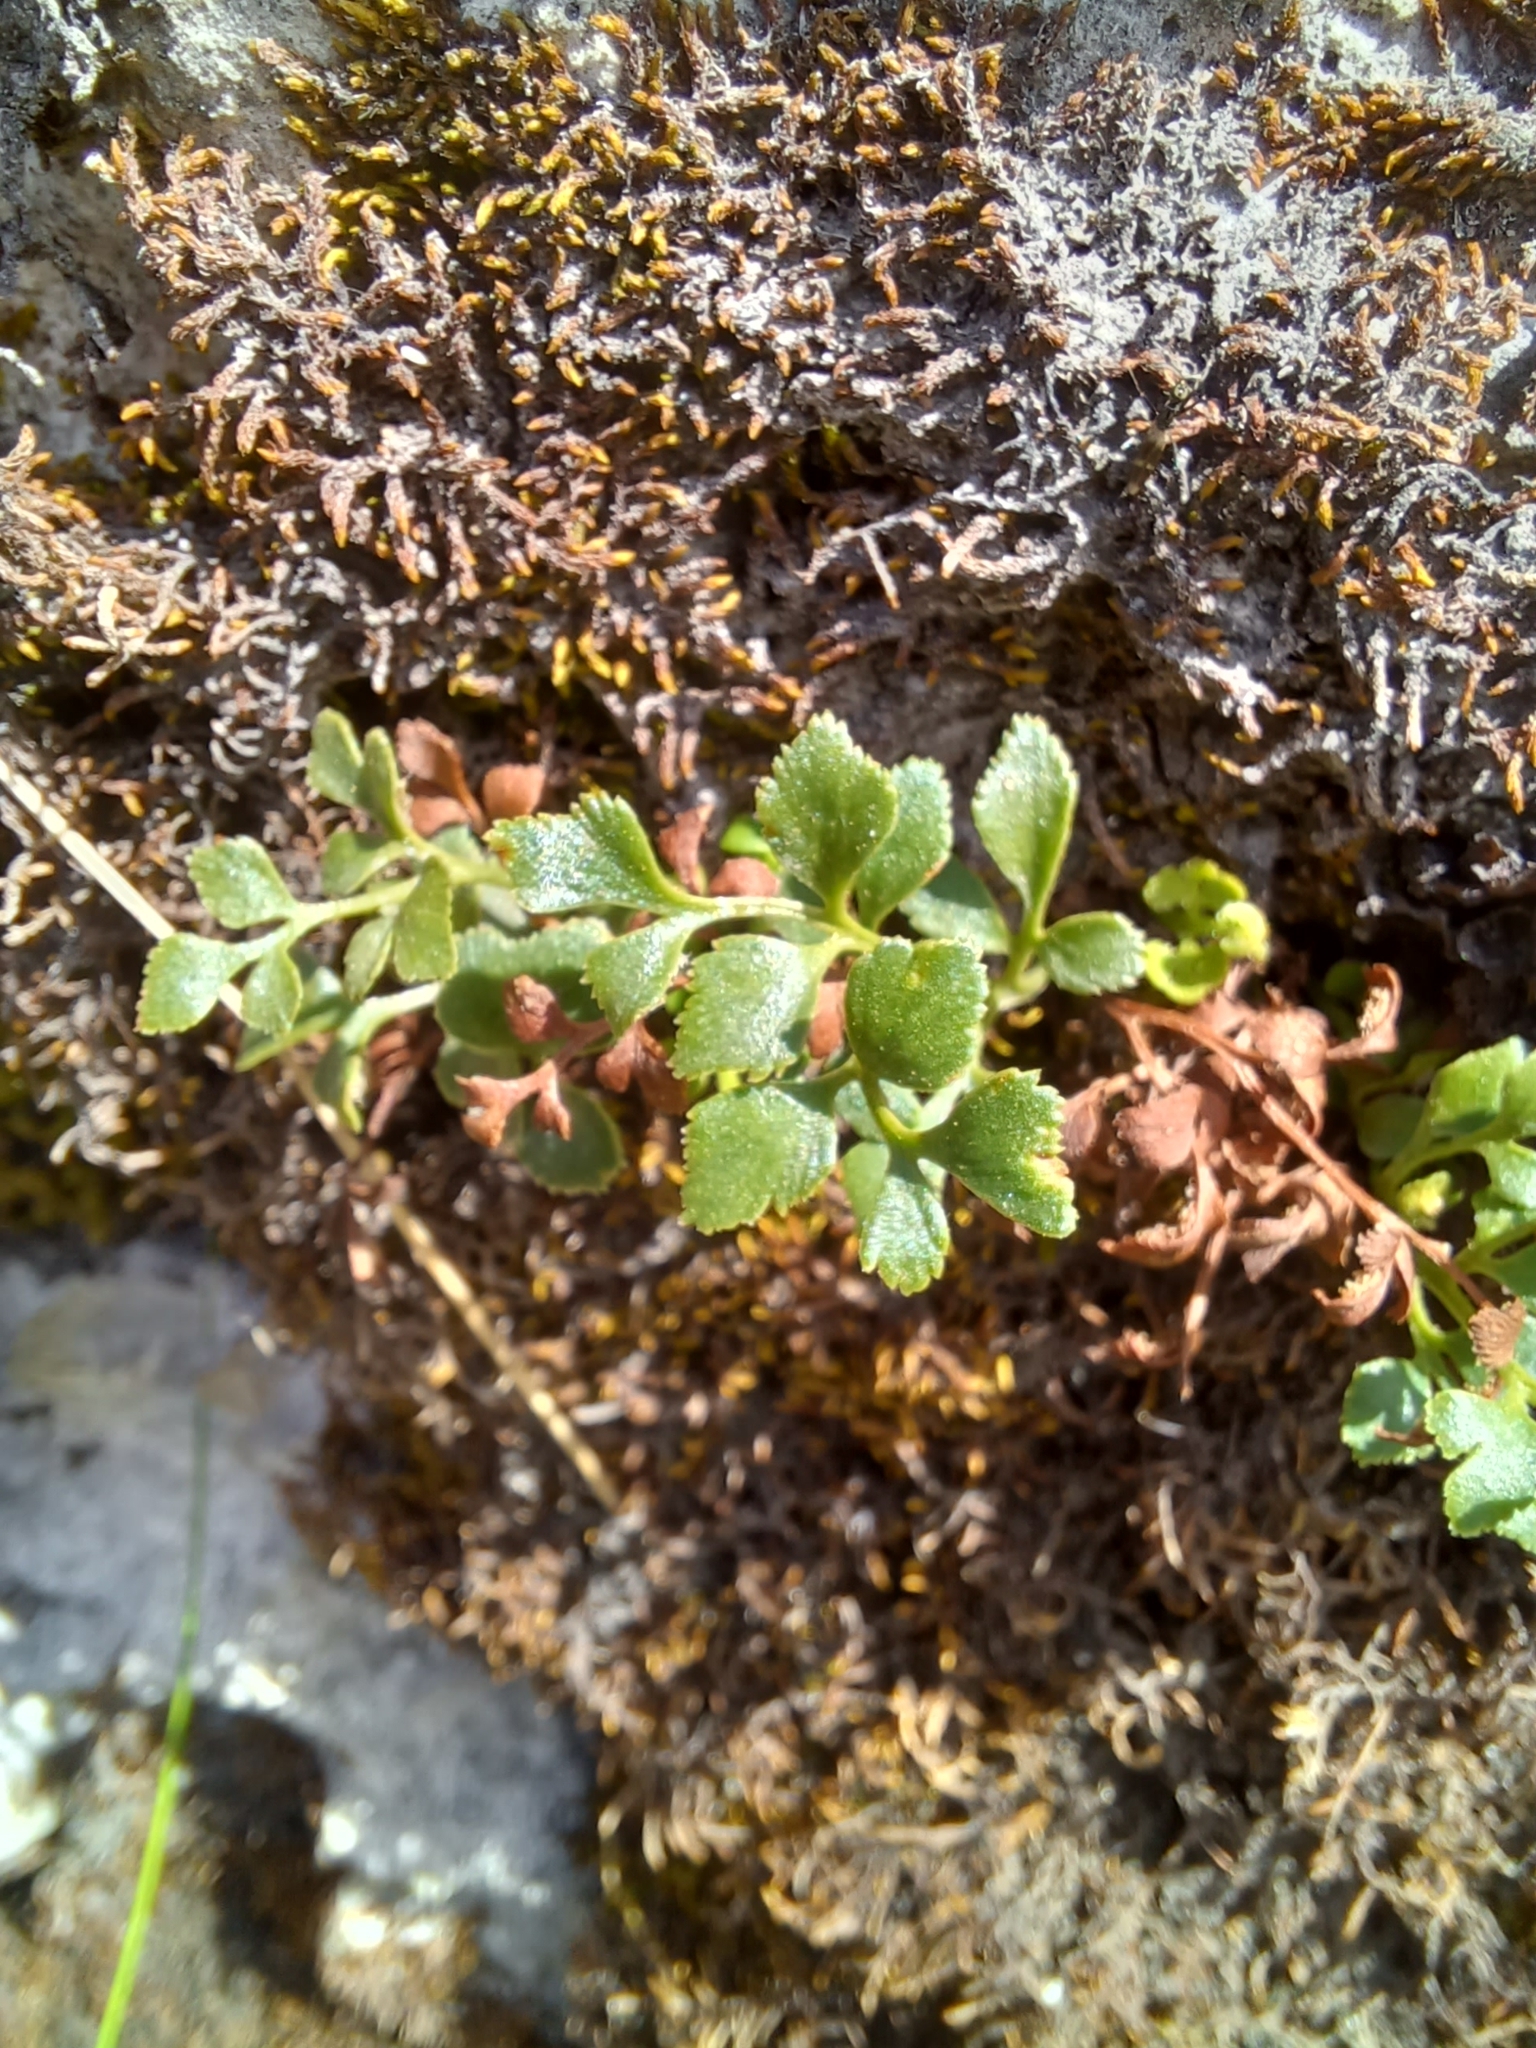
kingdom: Plantae
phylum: Tracheophyta
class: Polypodiopsida
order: Polypodiales
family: Aspleniaceae
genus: Asplenium
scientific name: Asplenium ruta-muraria
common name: Wall-rue
